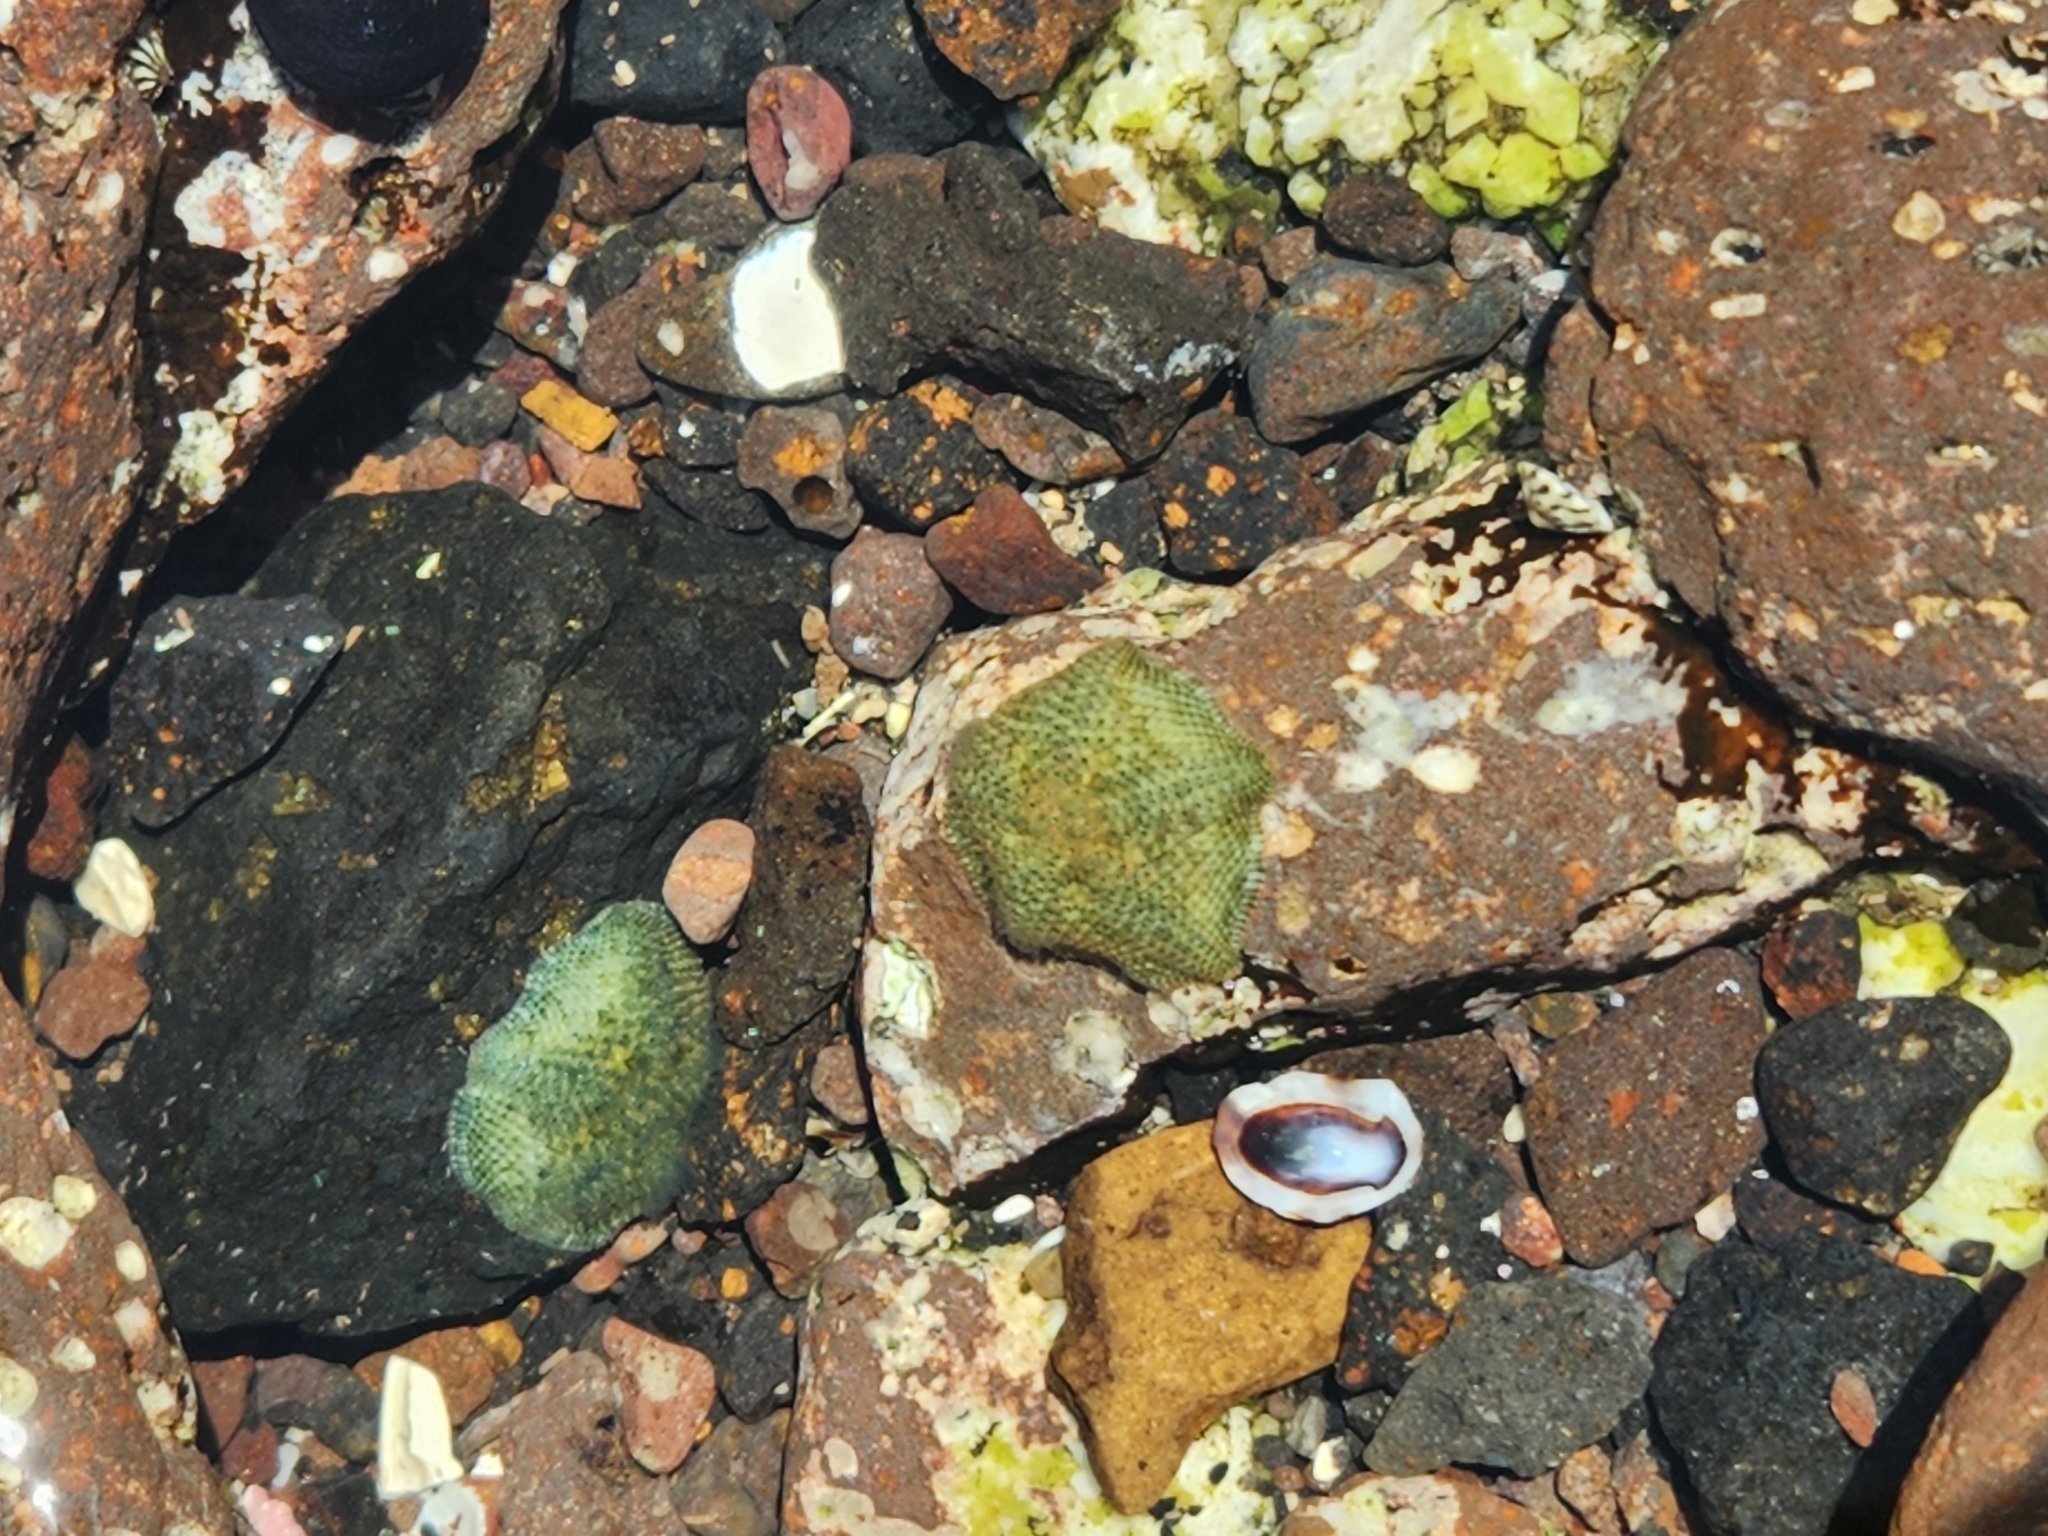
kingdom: Animalia
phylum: Echinodermata
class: Asteroidea
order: Valvatida
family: Asterinidae
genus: Parvulastra
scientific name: Parvulastra exigua
